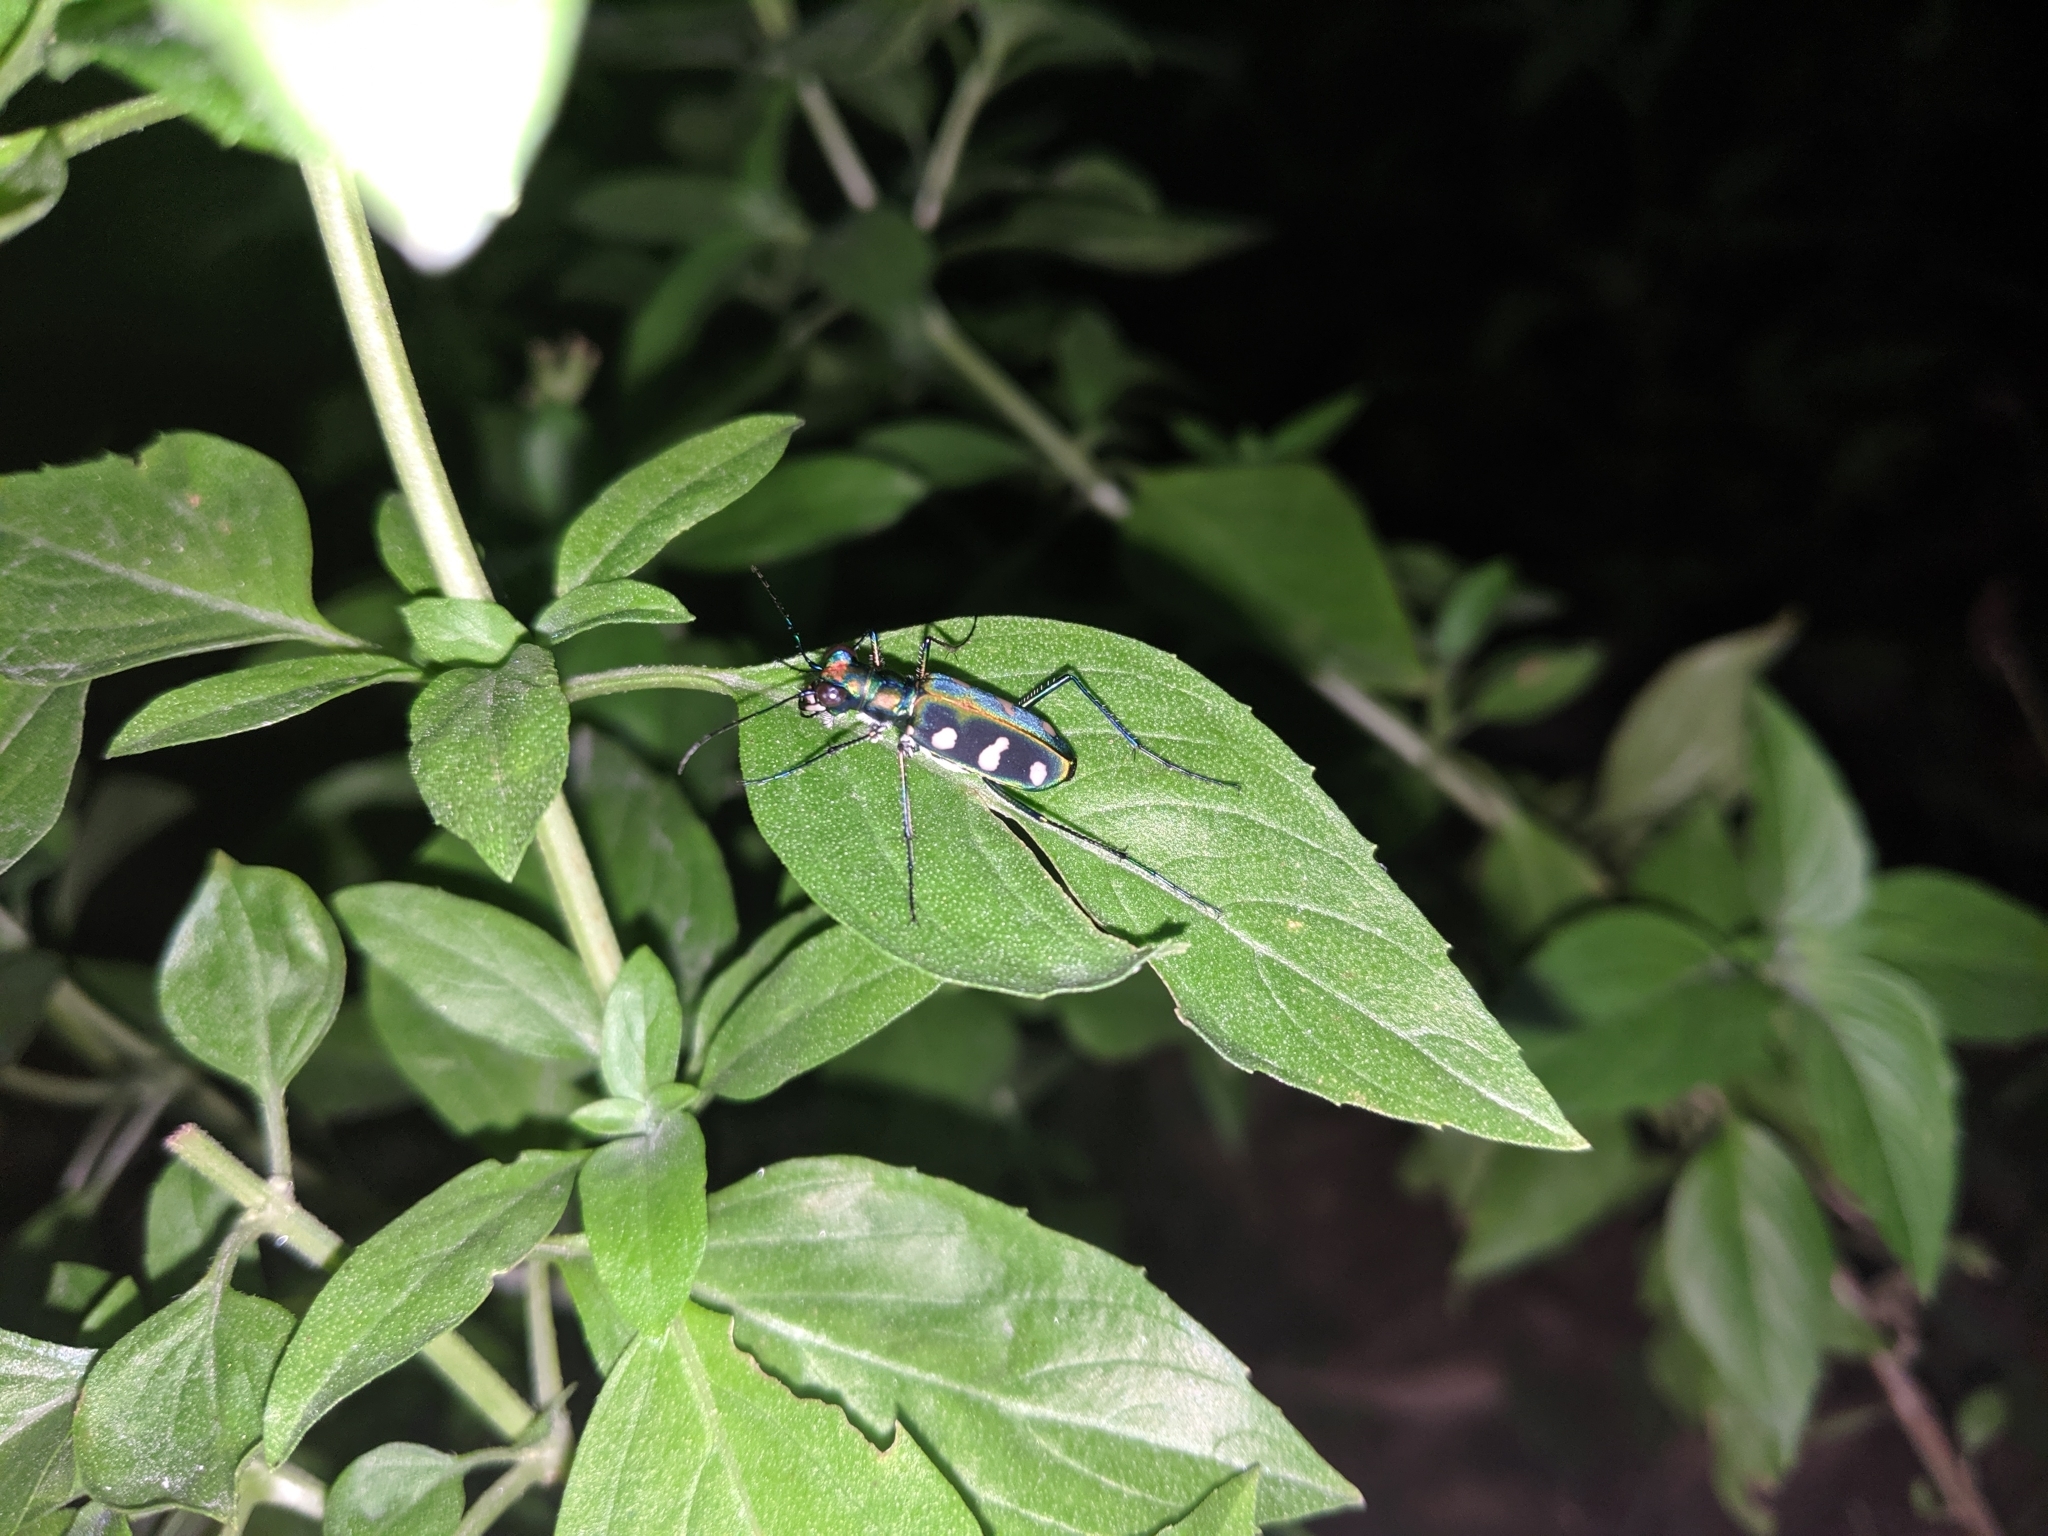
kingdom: Animalia
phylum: Arthropoda
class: Insecta
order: Coleoptera
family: Carabidae
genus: Cicindela
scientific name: Cicindela batesi
